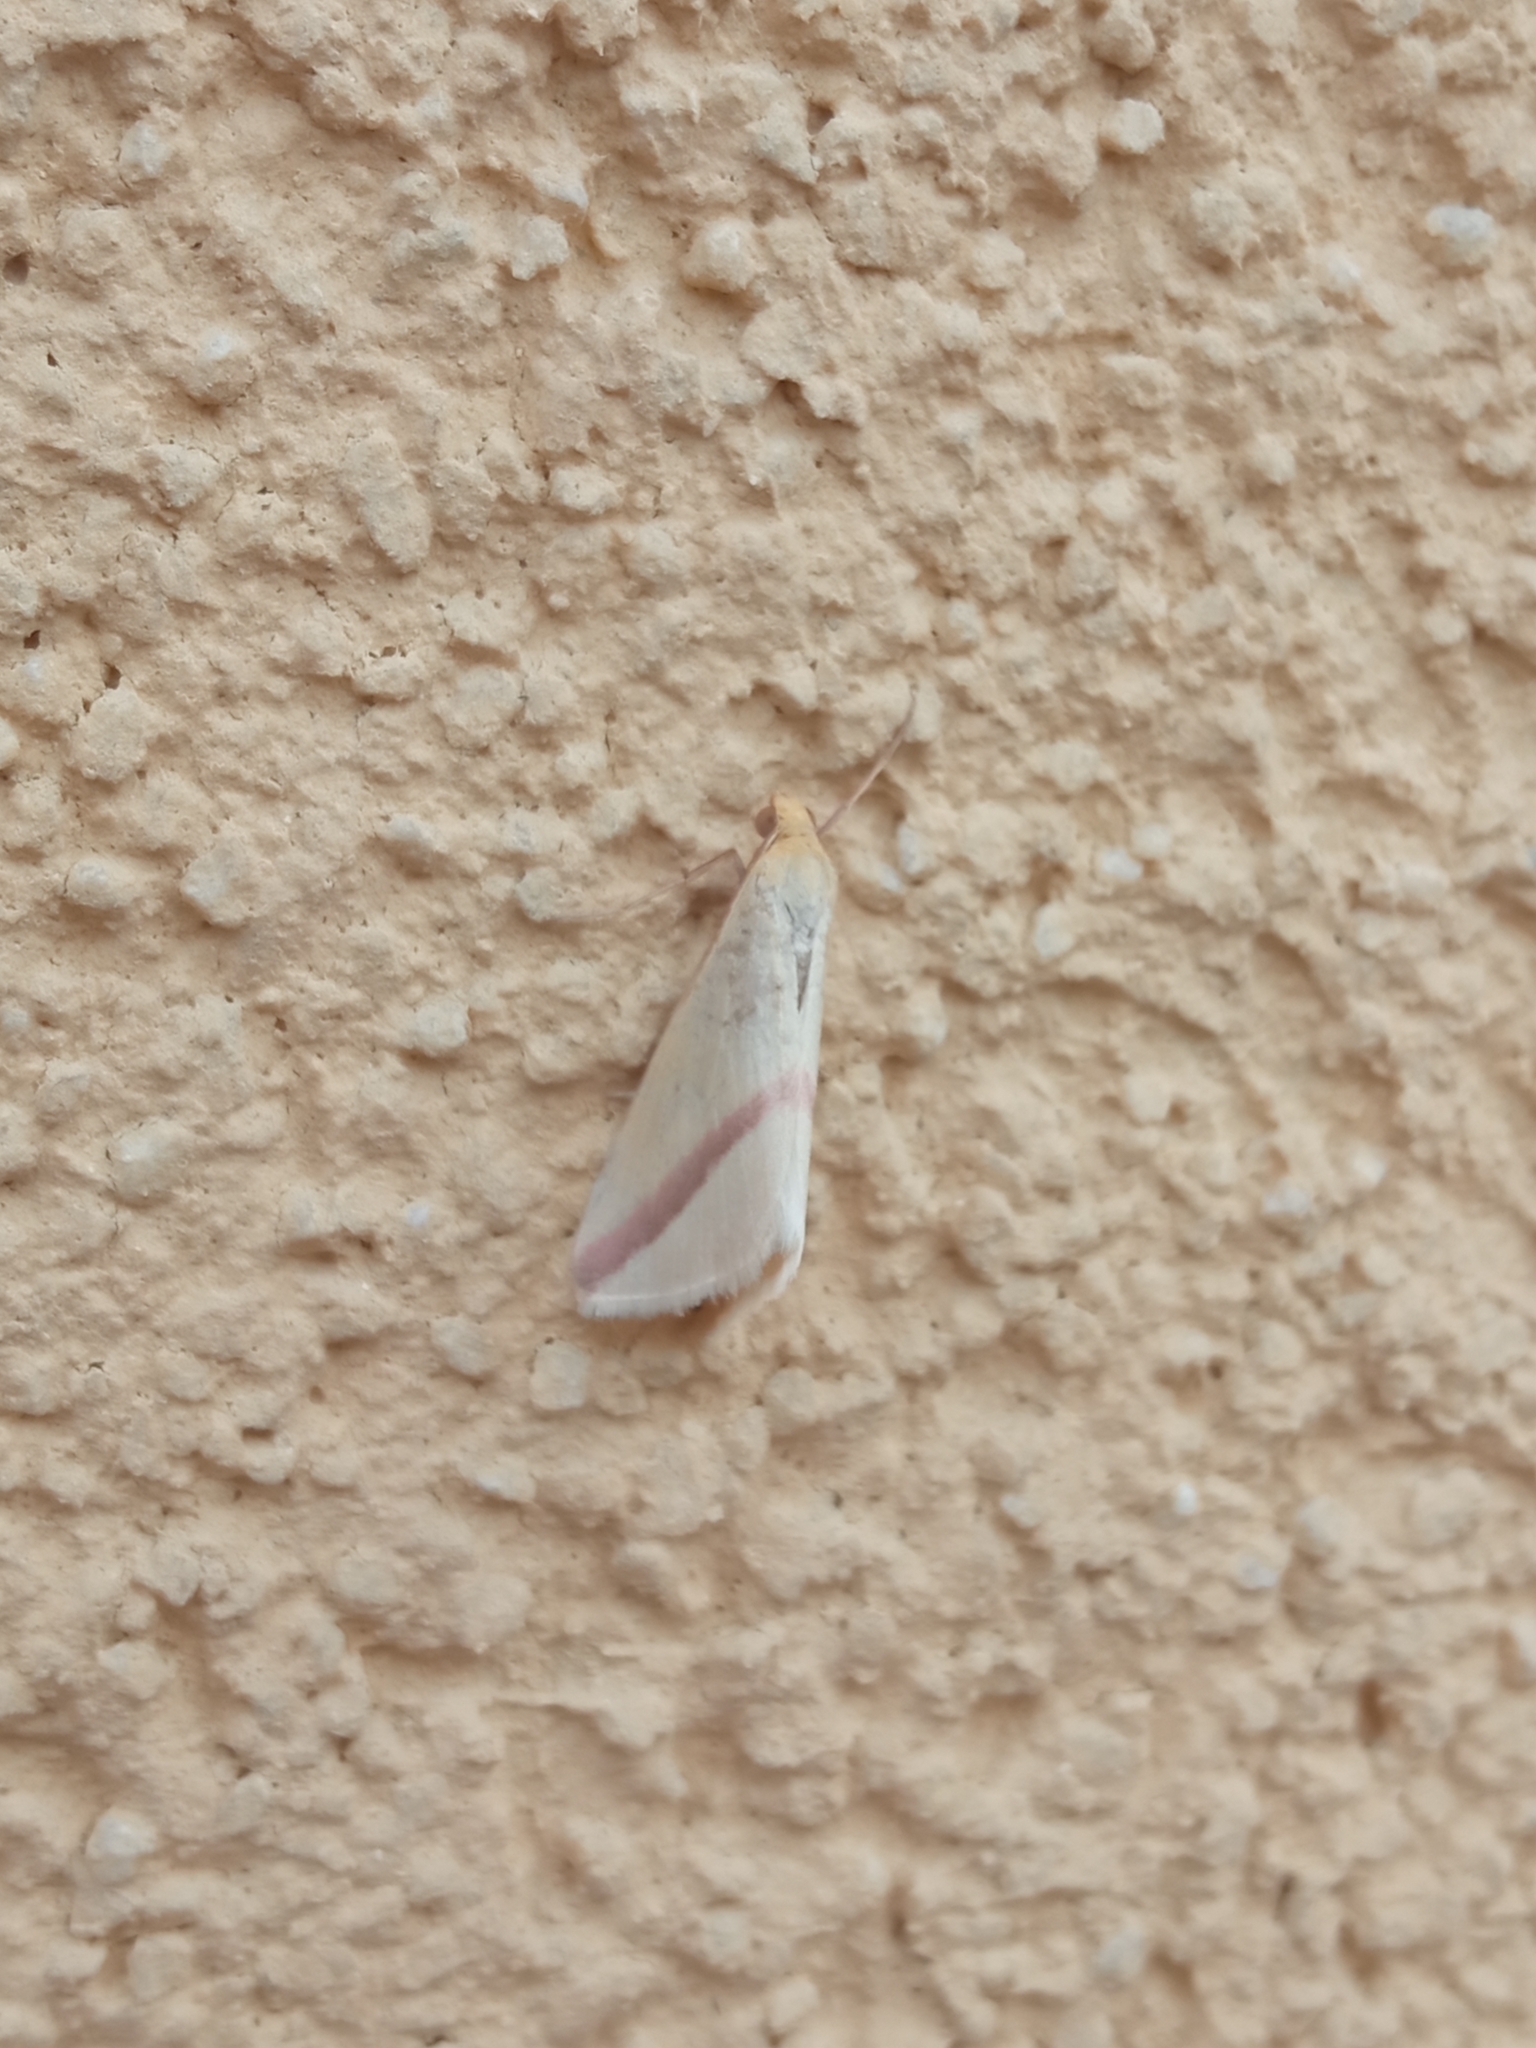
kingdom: Animalia
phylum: Arthropoda
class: Insecta
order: Lepidoptera
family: Geometridae
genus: Rhodometra
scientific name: Rhodometra sacraria
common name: Vestal
